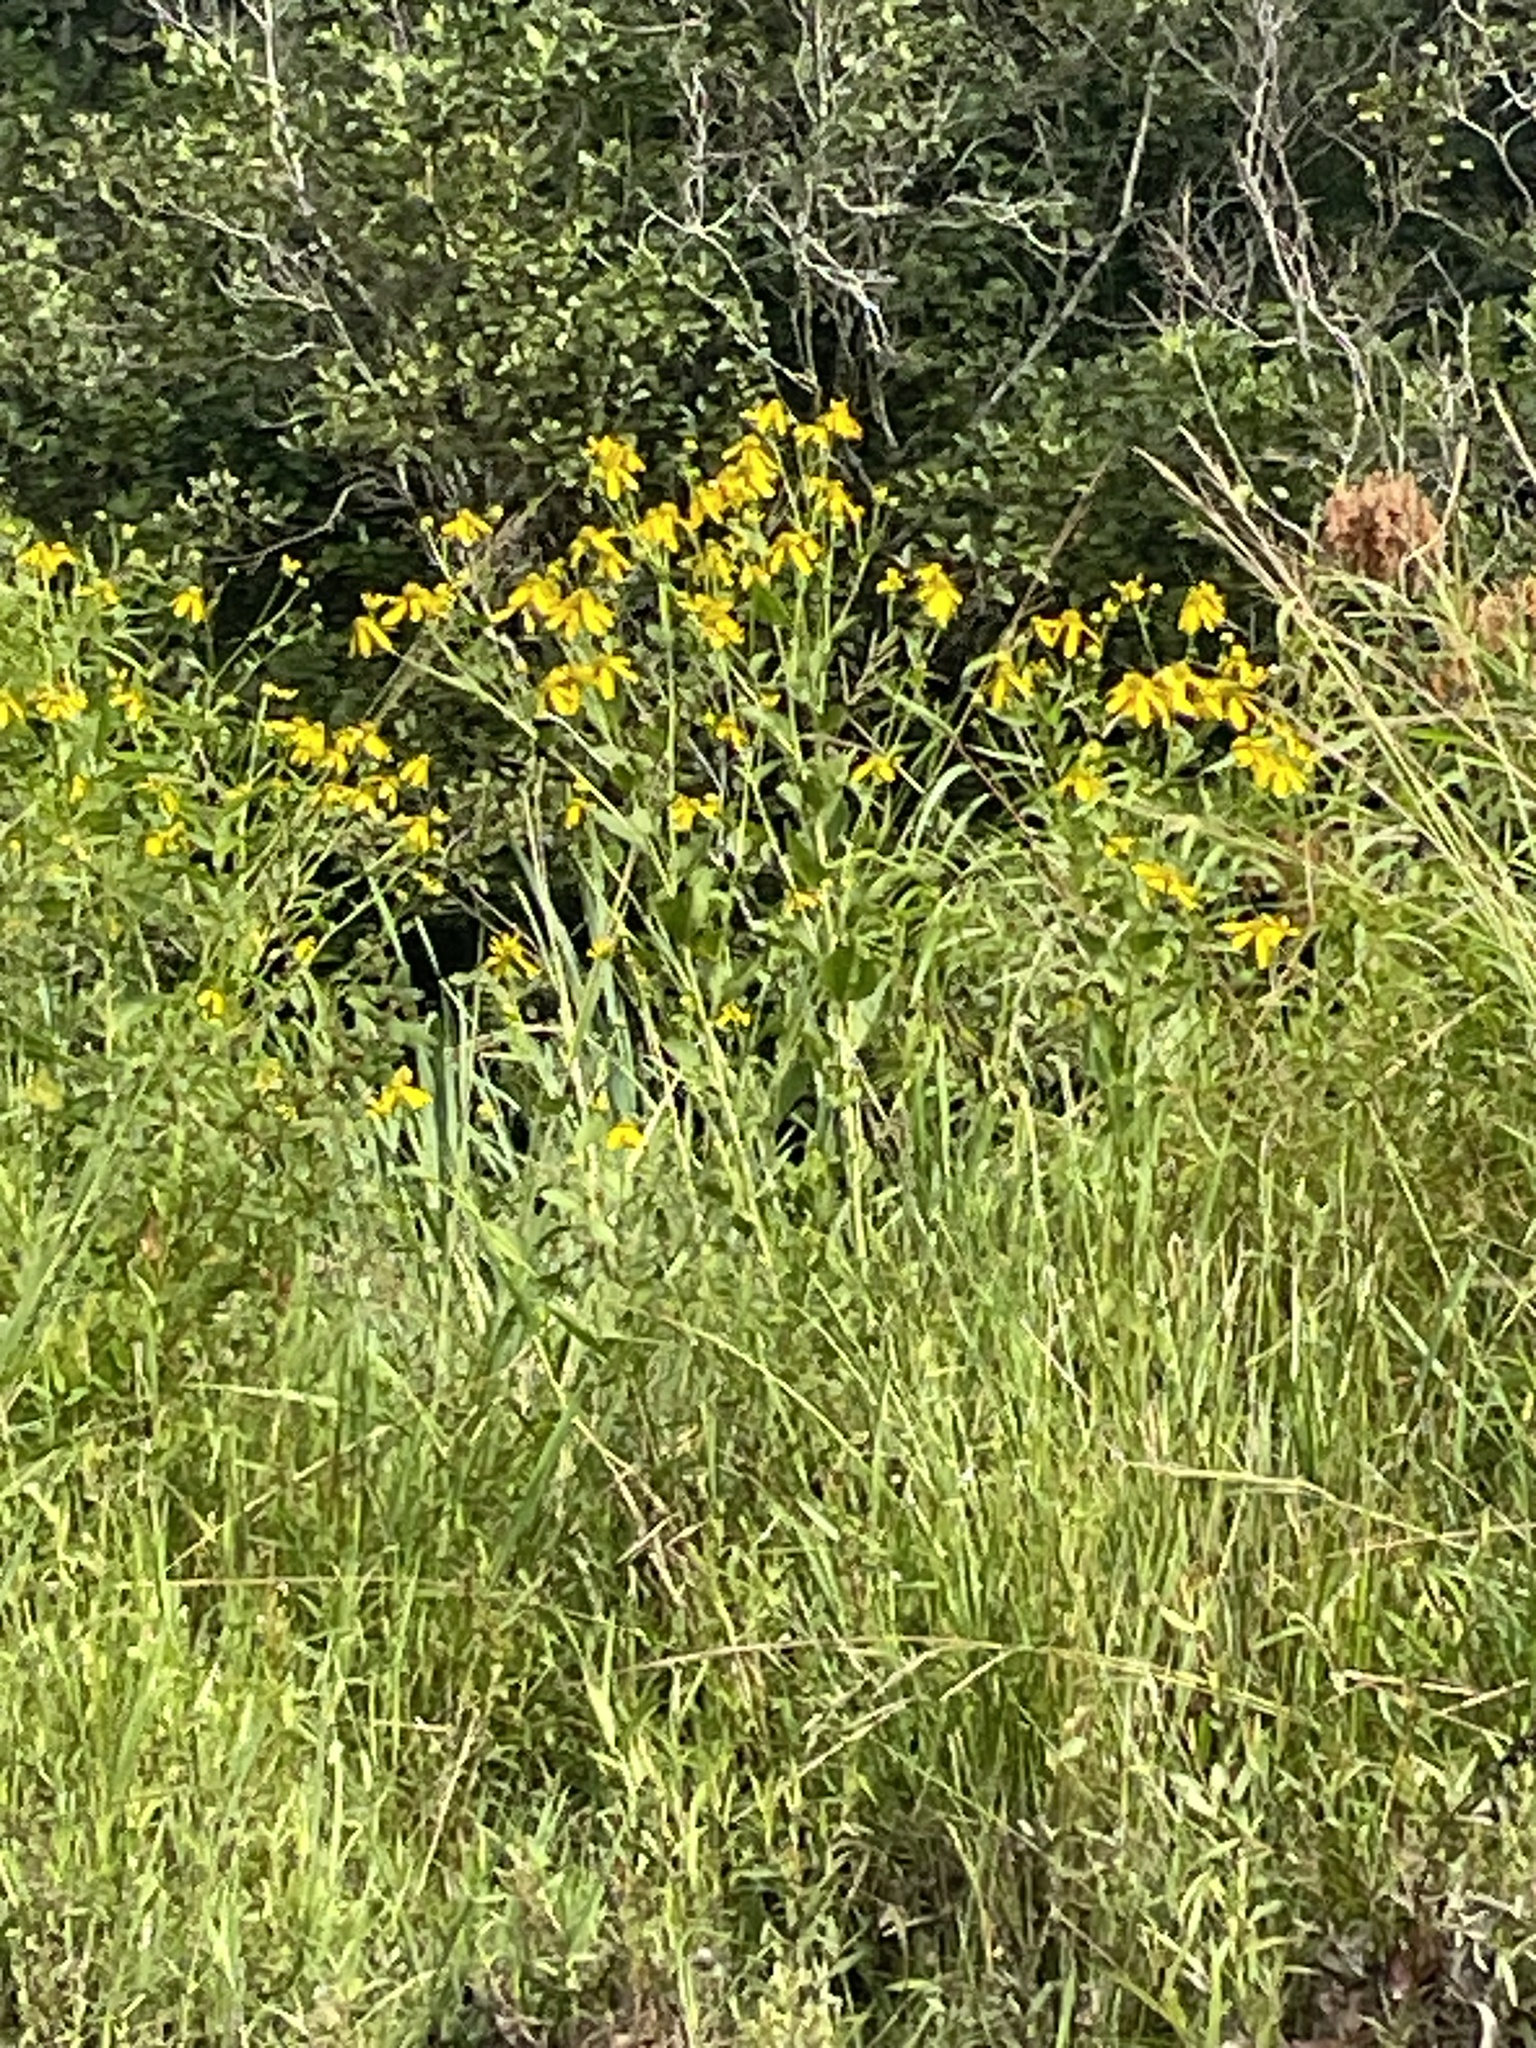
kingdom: Plantae
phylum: Tracheophyta
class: Magnoliopsida
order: Asterales
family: Asteraceae
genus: Rudbeckia
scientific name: Rudbeckia laciniata
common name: Coneflower
